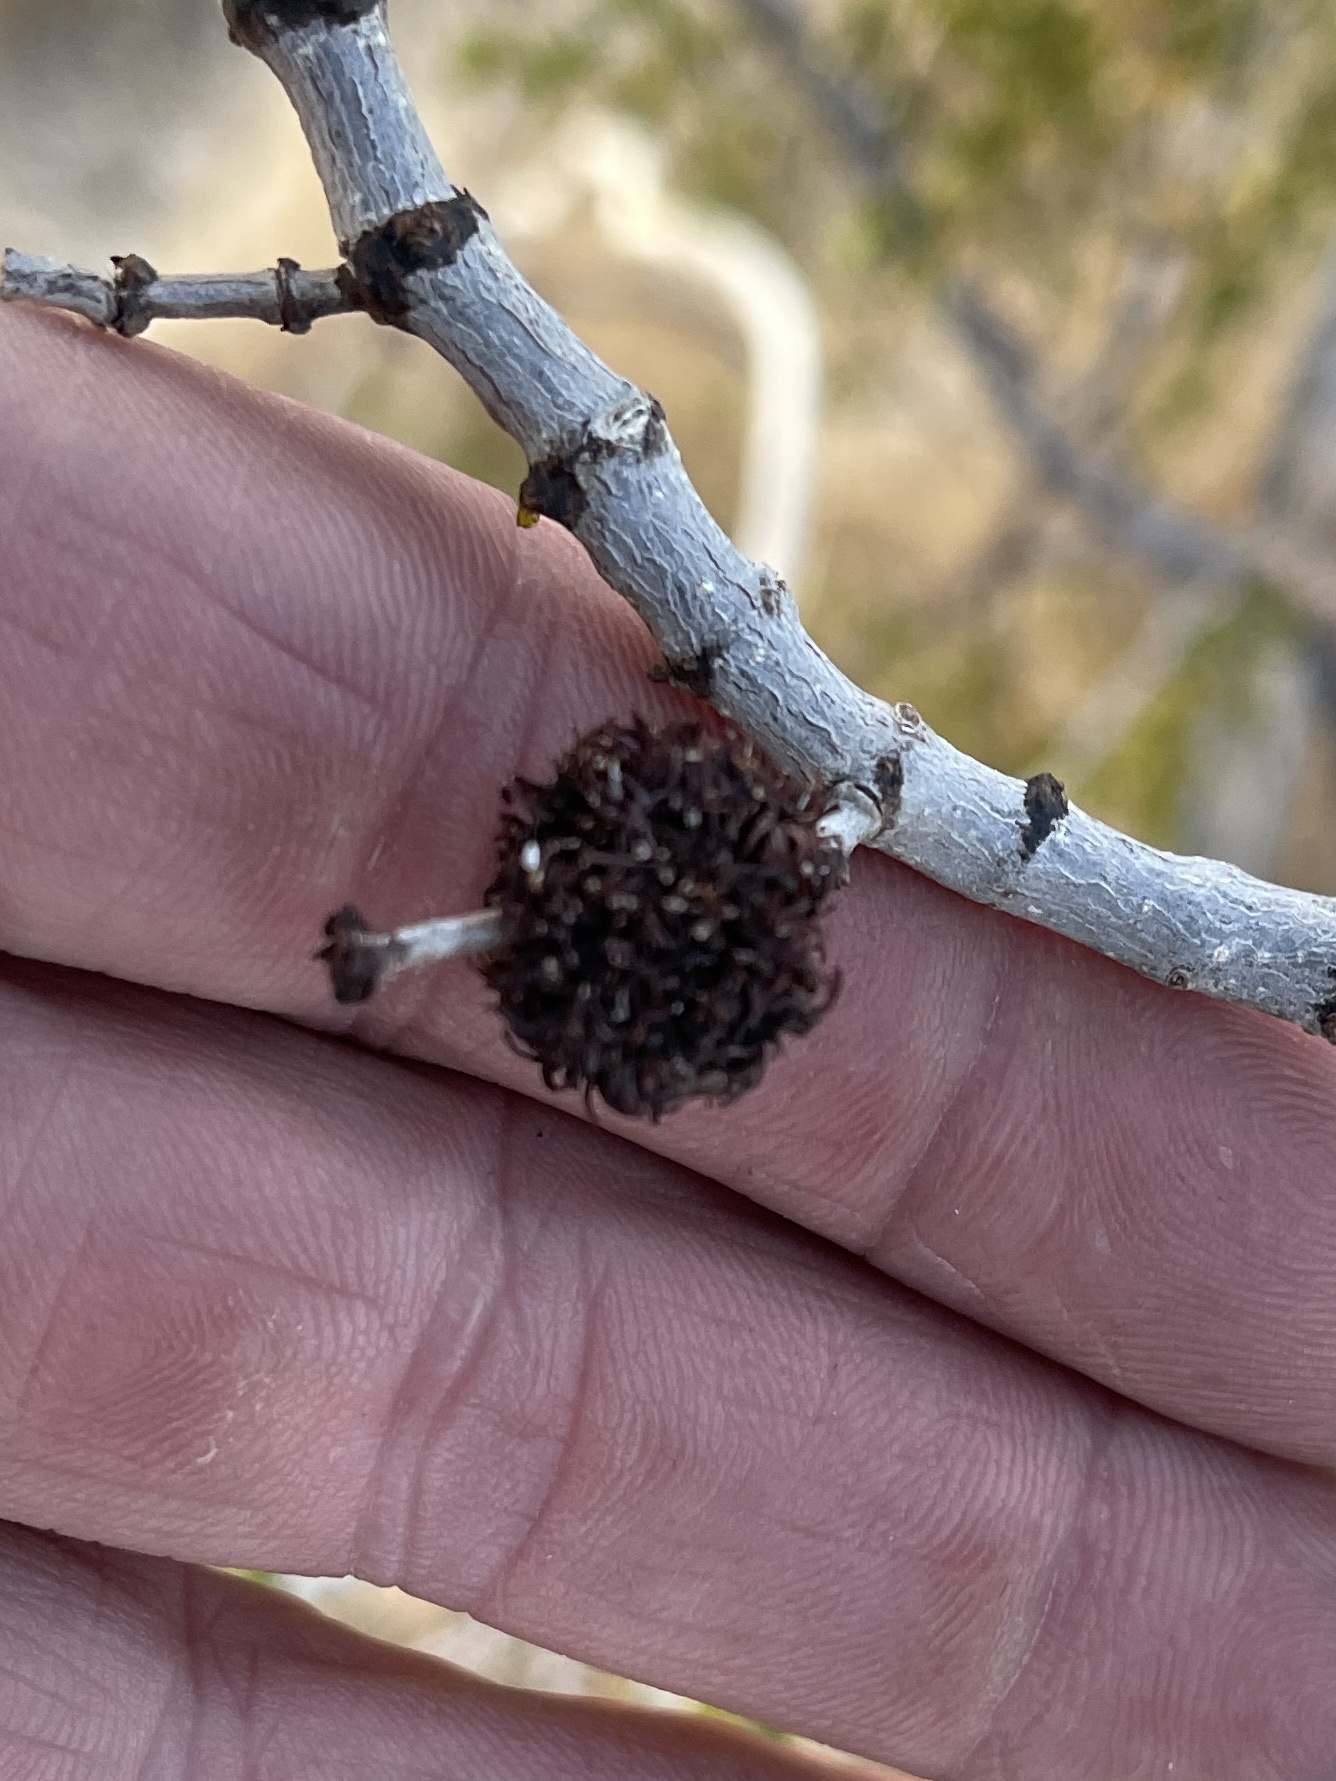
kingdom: Animalia
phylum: Arthropoda
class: Insecta
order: Diptera
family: Cecidomyiidae
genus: Asphondylia
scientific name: Asphondylia auripila
